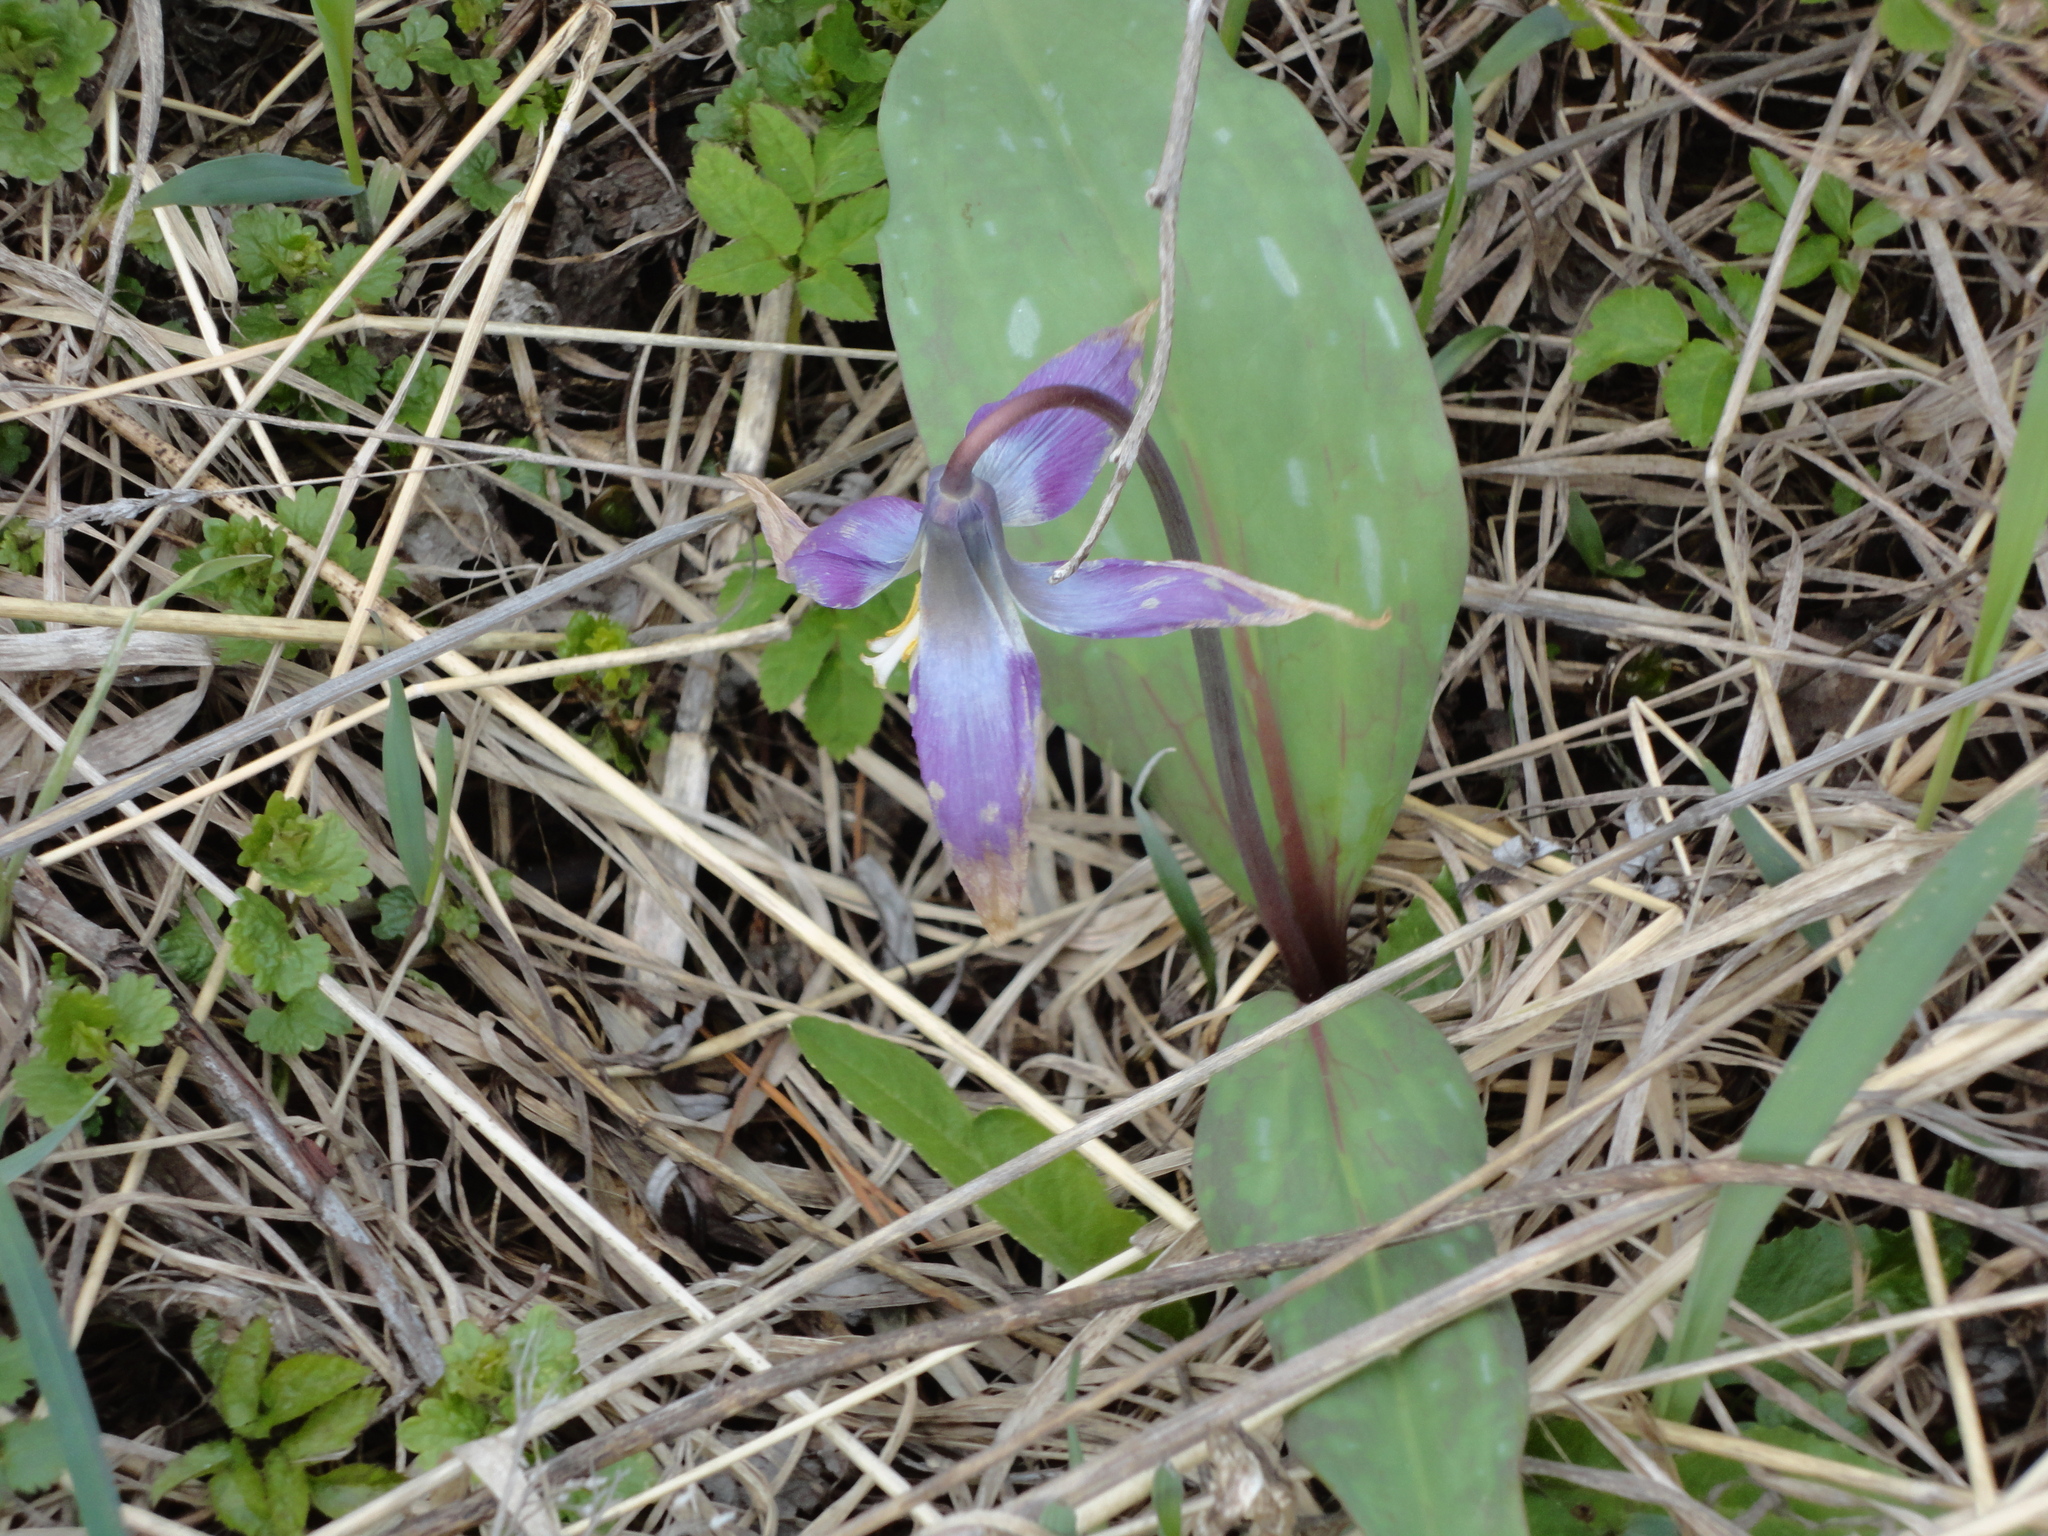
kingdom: Plantae
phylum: Tracheophyta
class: Liliopsida
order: Liliales
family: Liliaceae
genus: Erythronium
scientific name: Erythronium sibiricum
